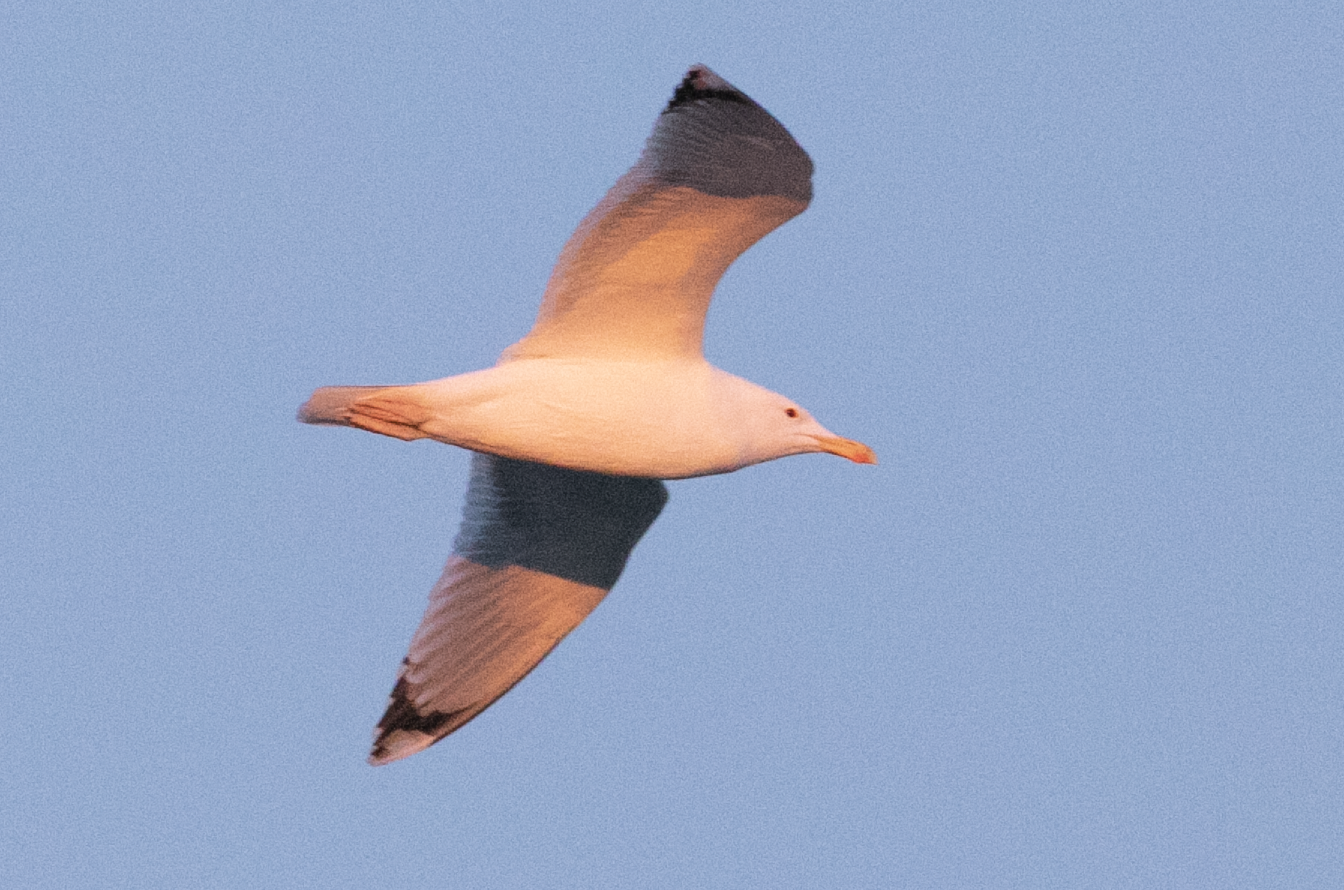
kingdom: Animalia
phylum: Chordata
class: Aves
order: Charadriiformes
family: Laridae
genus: Larus
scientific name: Larus cachinnans
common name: Caspian gull
